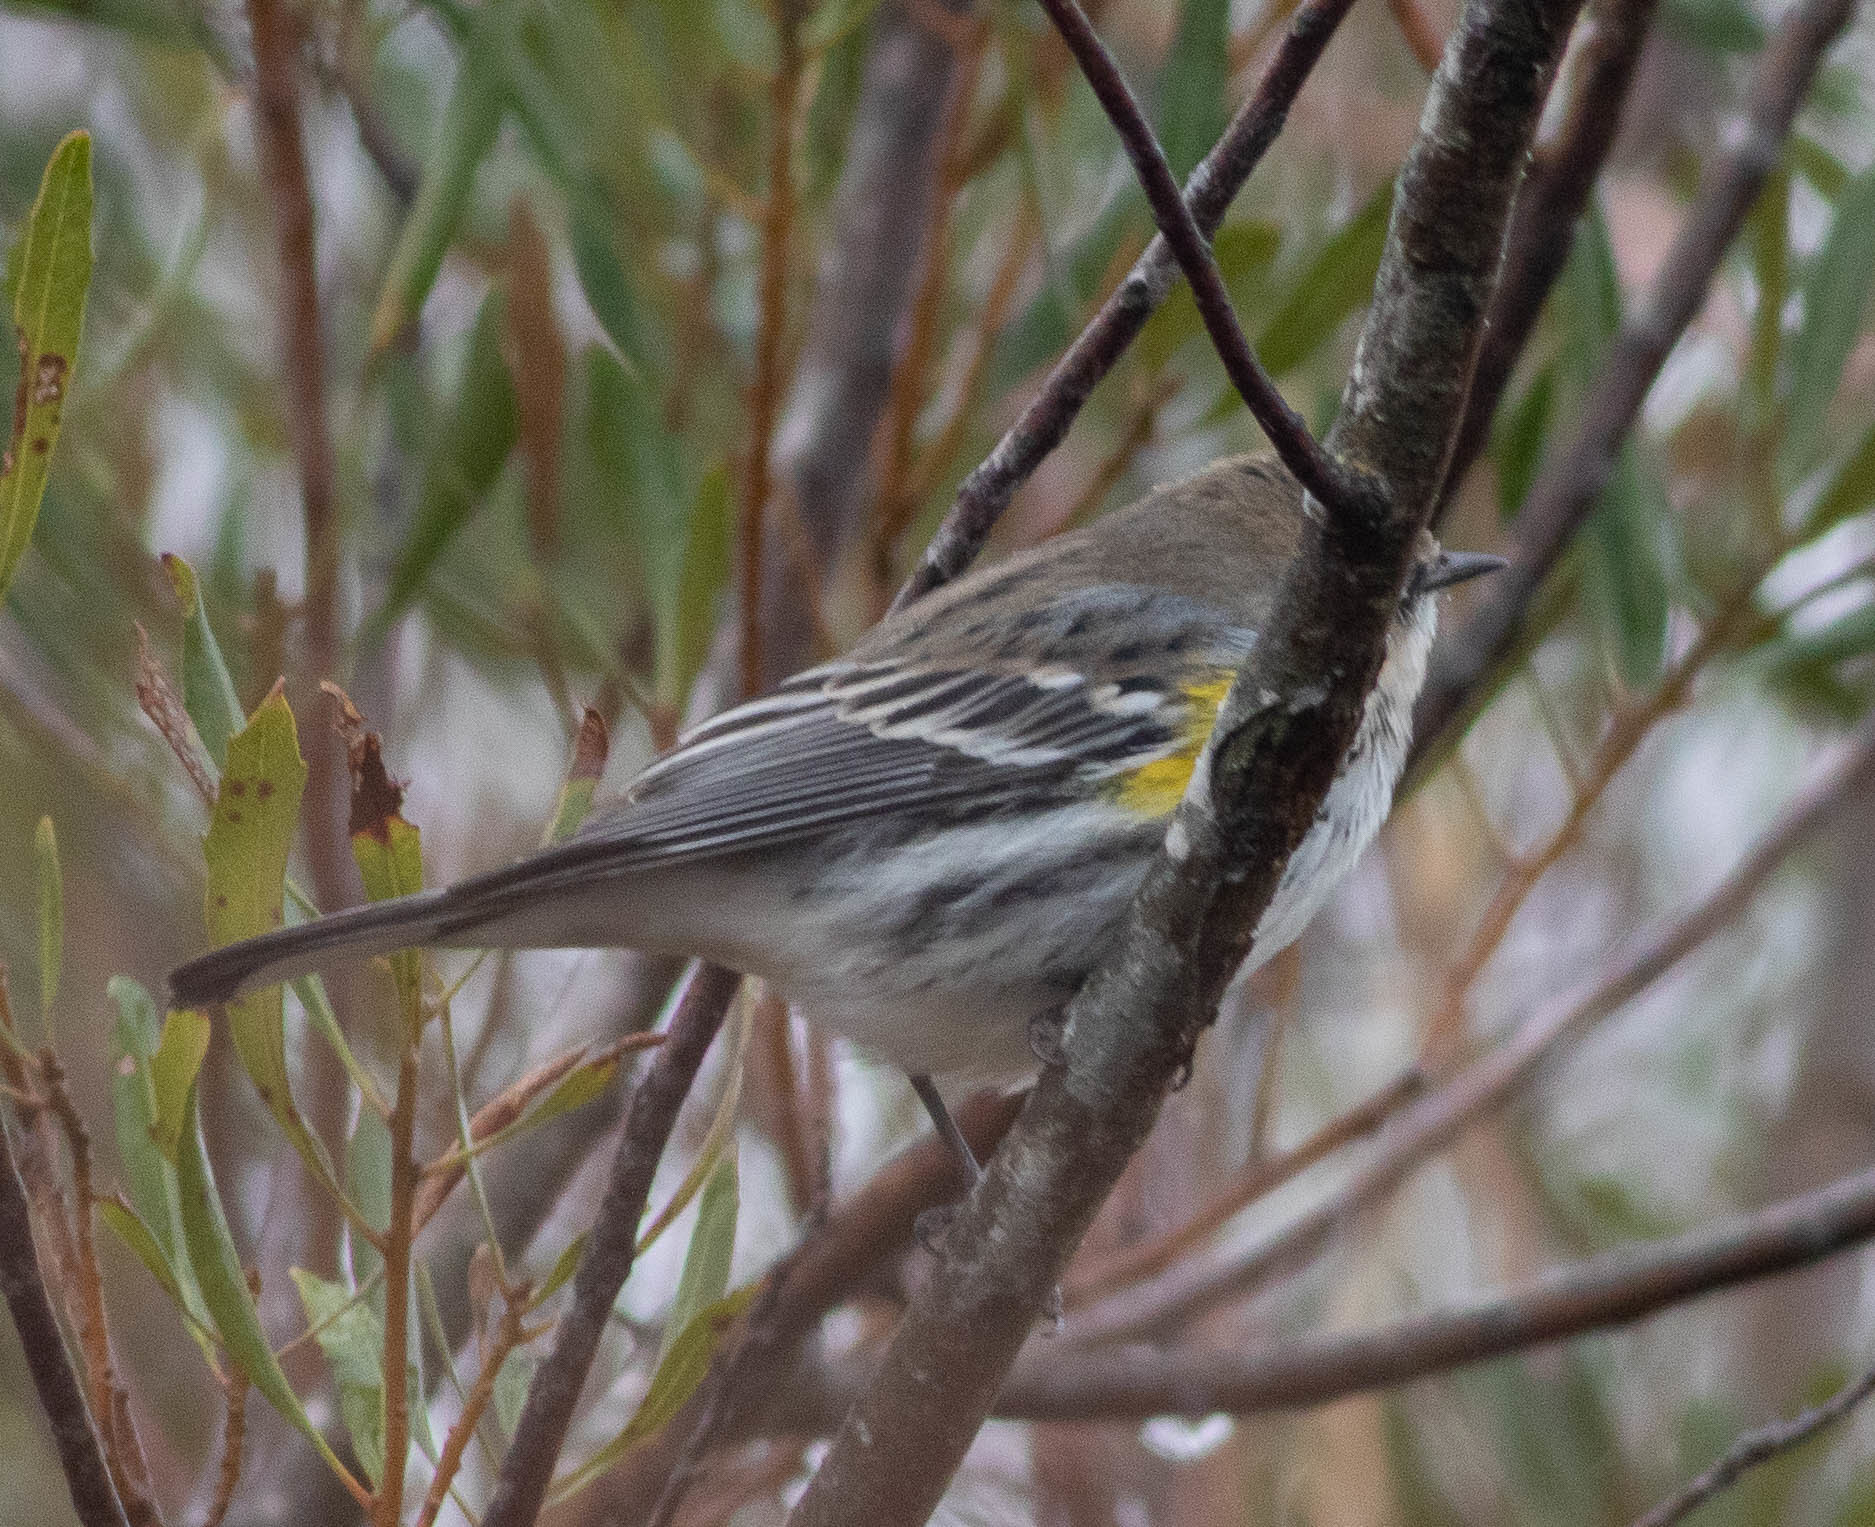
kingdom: Animalia
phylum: Chordata
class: Aves
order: Passeriformes
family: Parulidae
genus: Setophaga
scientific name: Setophaga coronata
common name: Myrtle warbler
